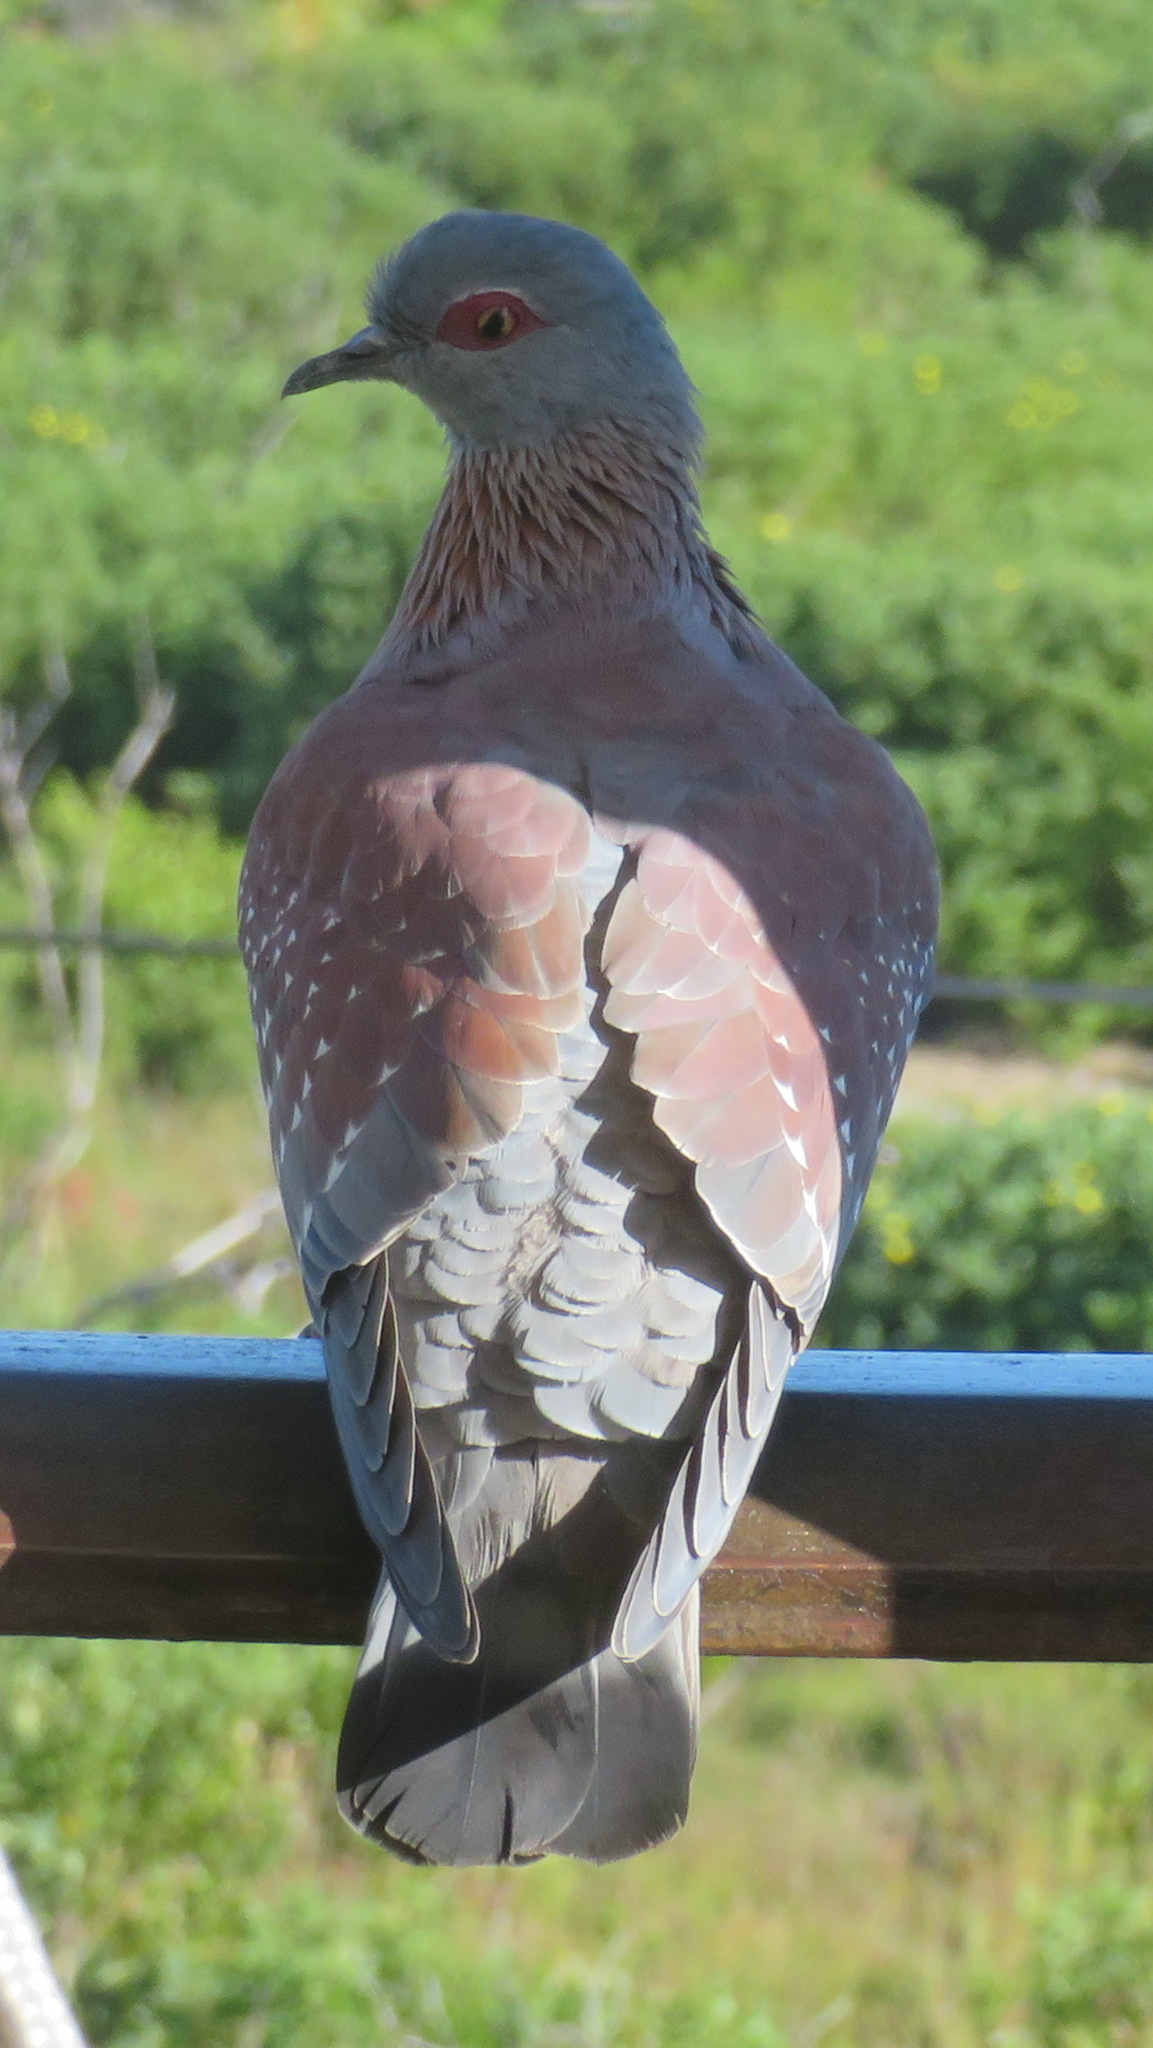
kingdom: Animalia
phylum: Chordata
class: Aves
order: Columbiformes
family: Columbidae
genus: Columba
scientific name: Columba guinea
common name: Speckled pigeon
